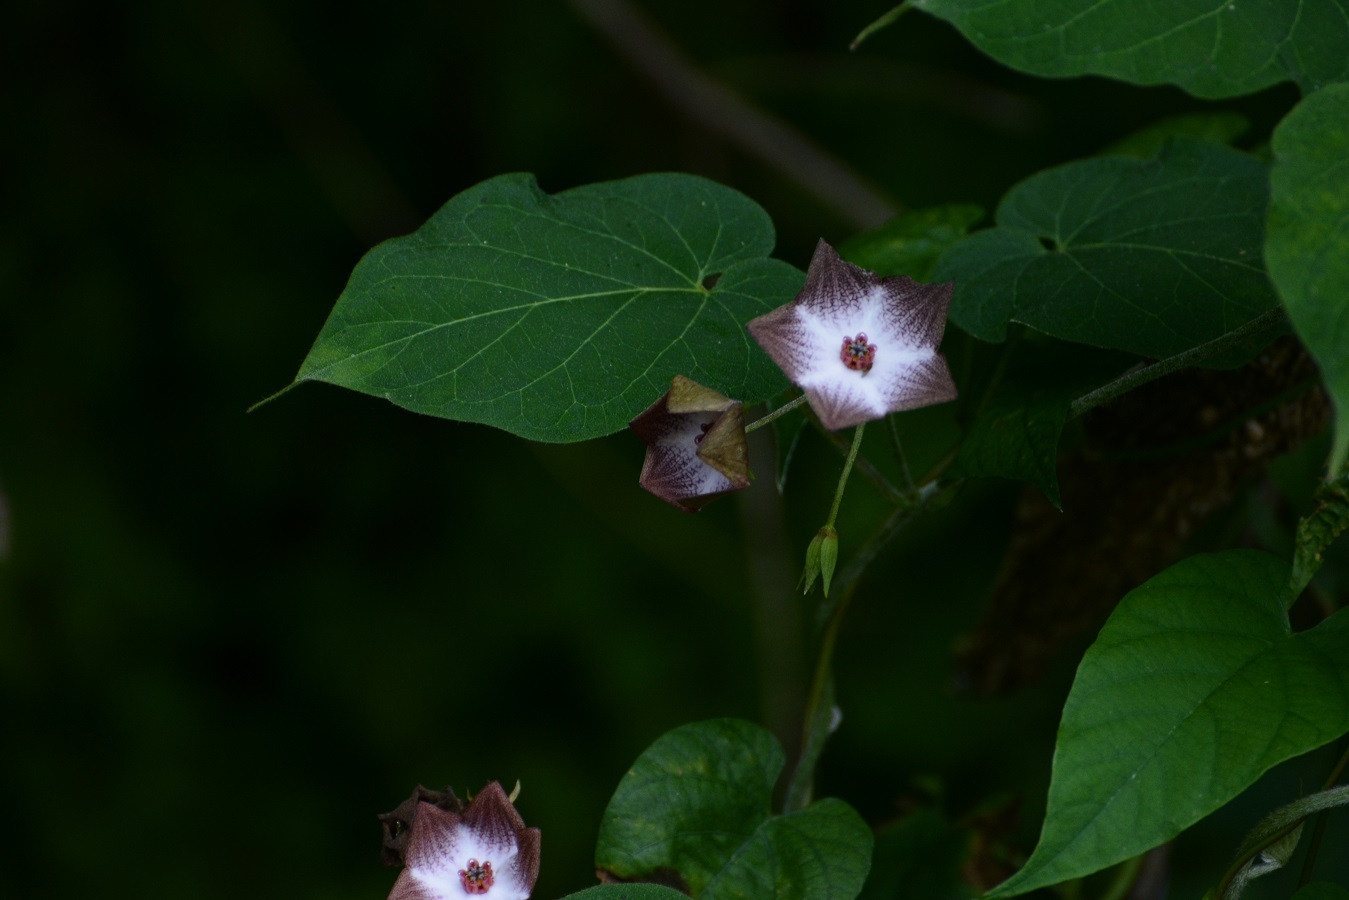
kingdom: Plantae
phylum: Tracheophyta
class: Magnoliopsida
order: Gentianales
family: Apocynaceae
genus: Polystemma
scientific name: Polystemma guatemalense
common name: Arborescente rattan
